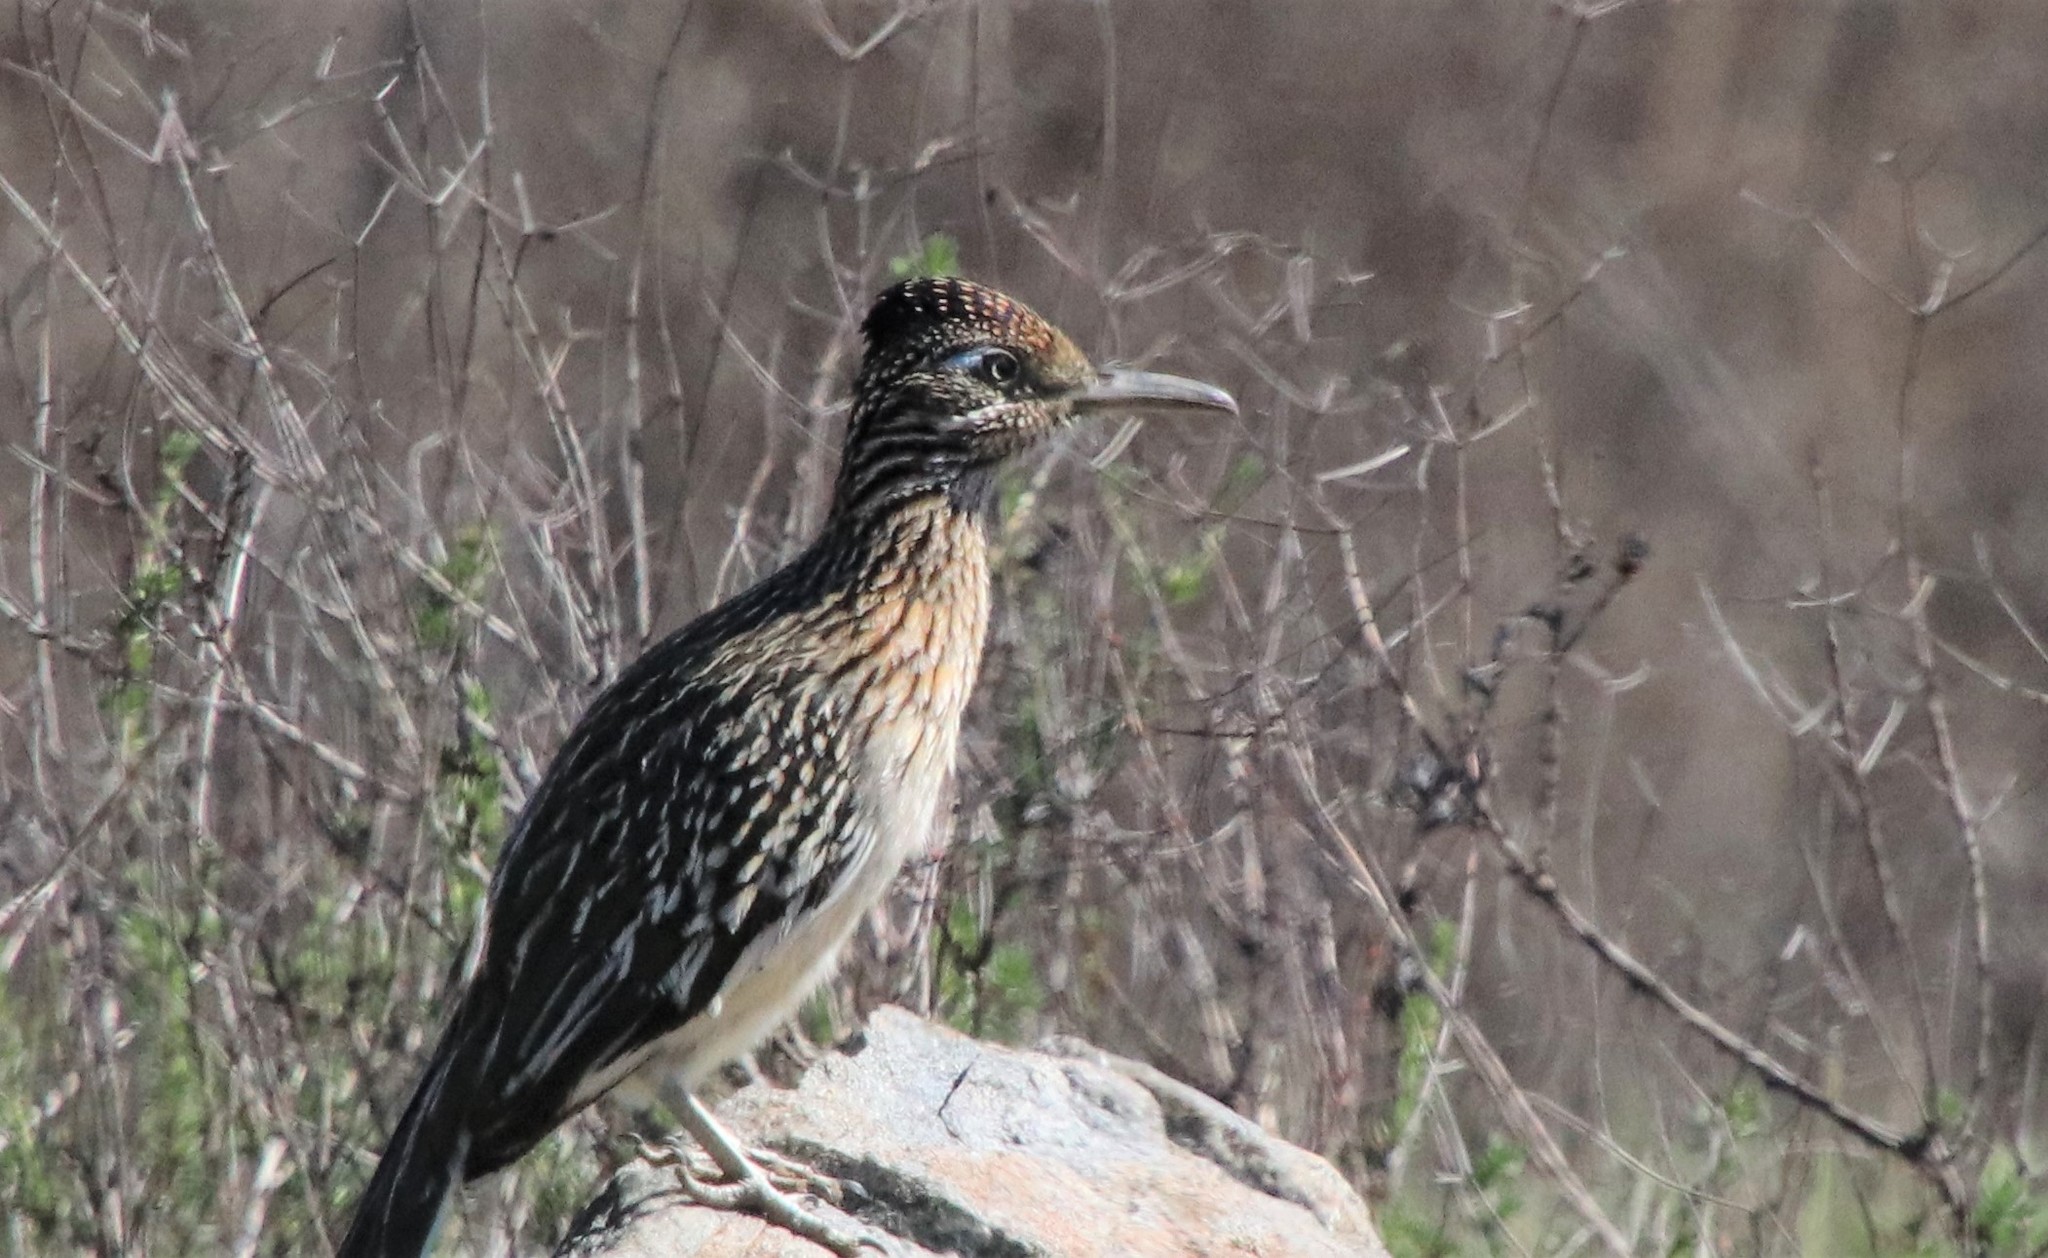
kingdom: Animalia
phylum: Chordata
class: Aves
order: Cuculiformes
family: Cuculidae
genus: Geococcyx
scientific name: Geococcyx californianus
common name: Greater roadrunner
